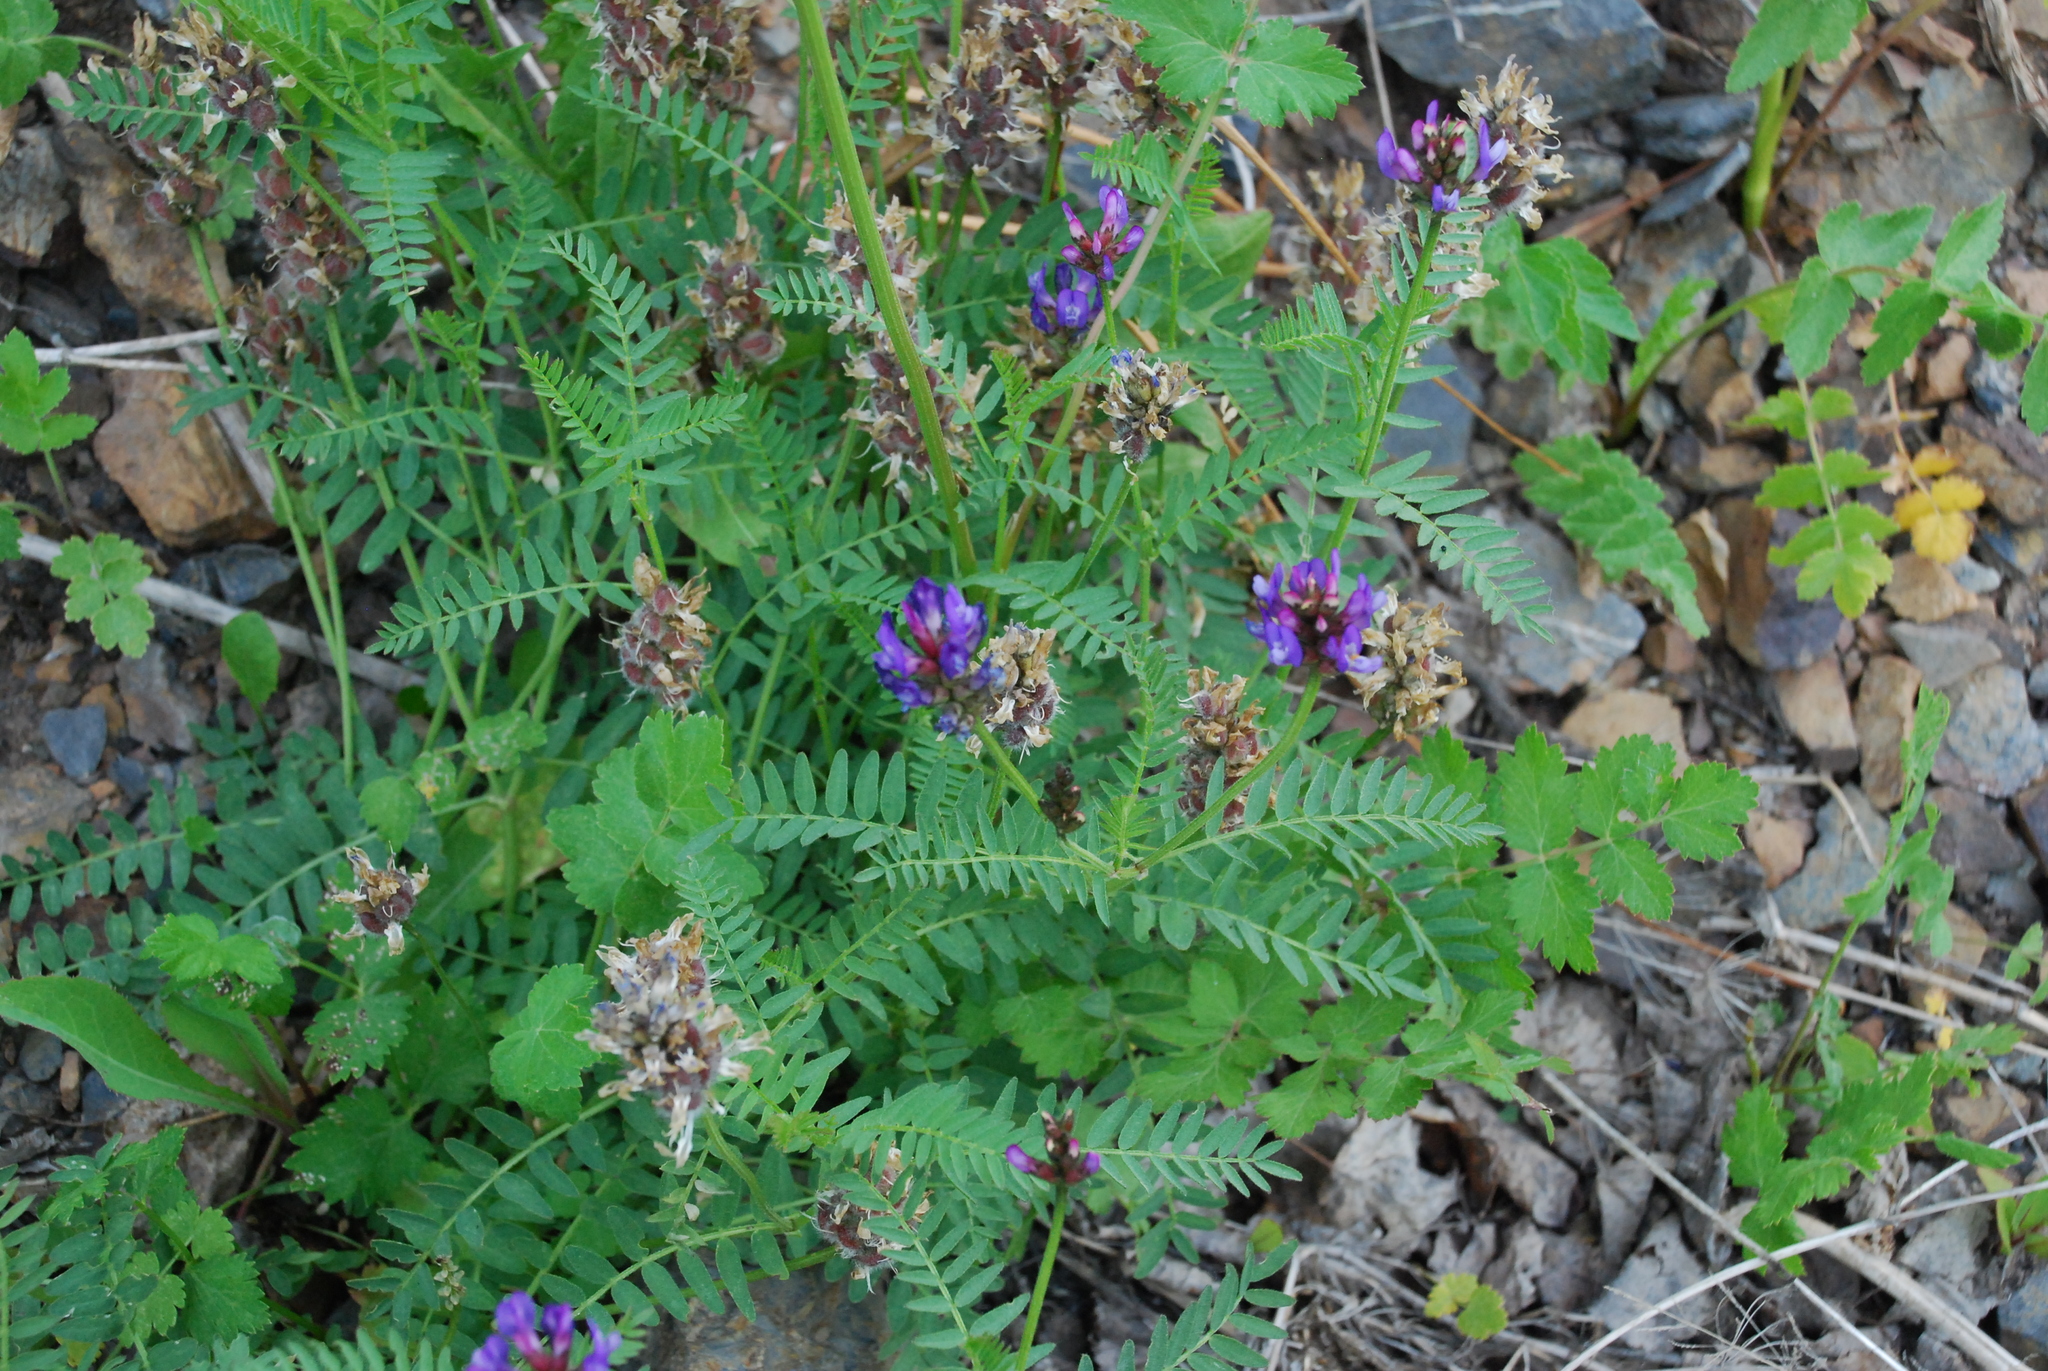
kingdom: Plantae
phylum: Tracheophyta
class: Magnoliopsida
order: Fabales
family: Fabaceae
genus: Astragalus
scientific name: Astragalus danicus
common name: Purple milk-vetch
